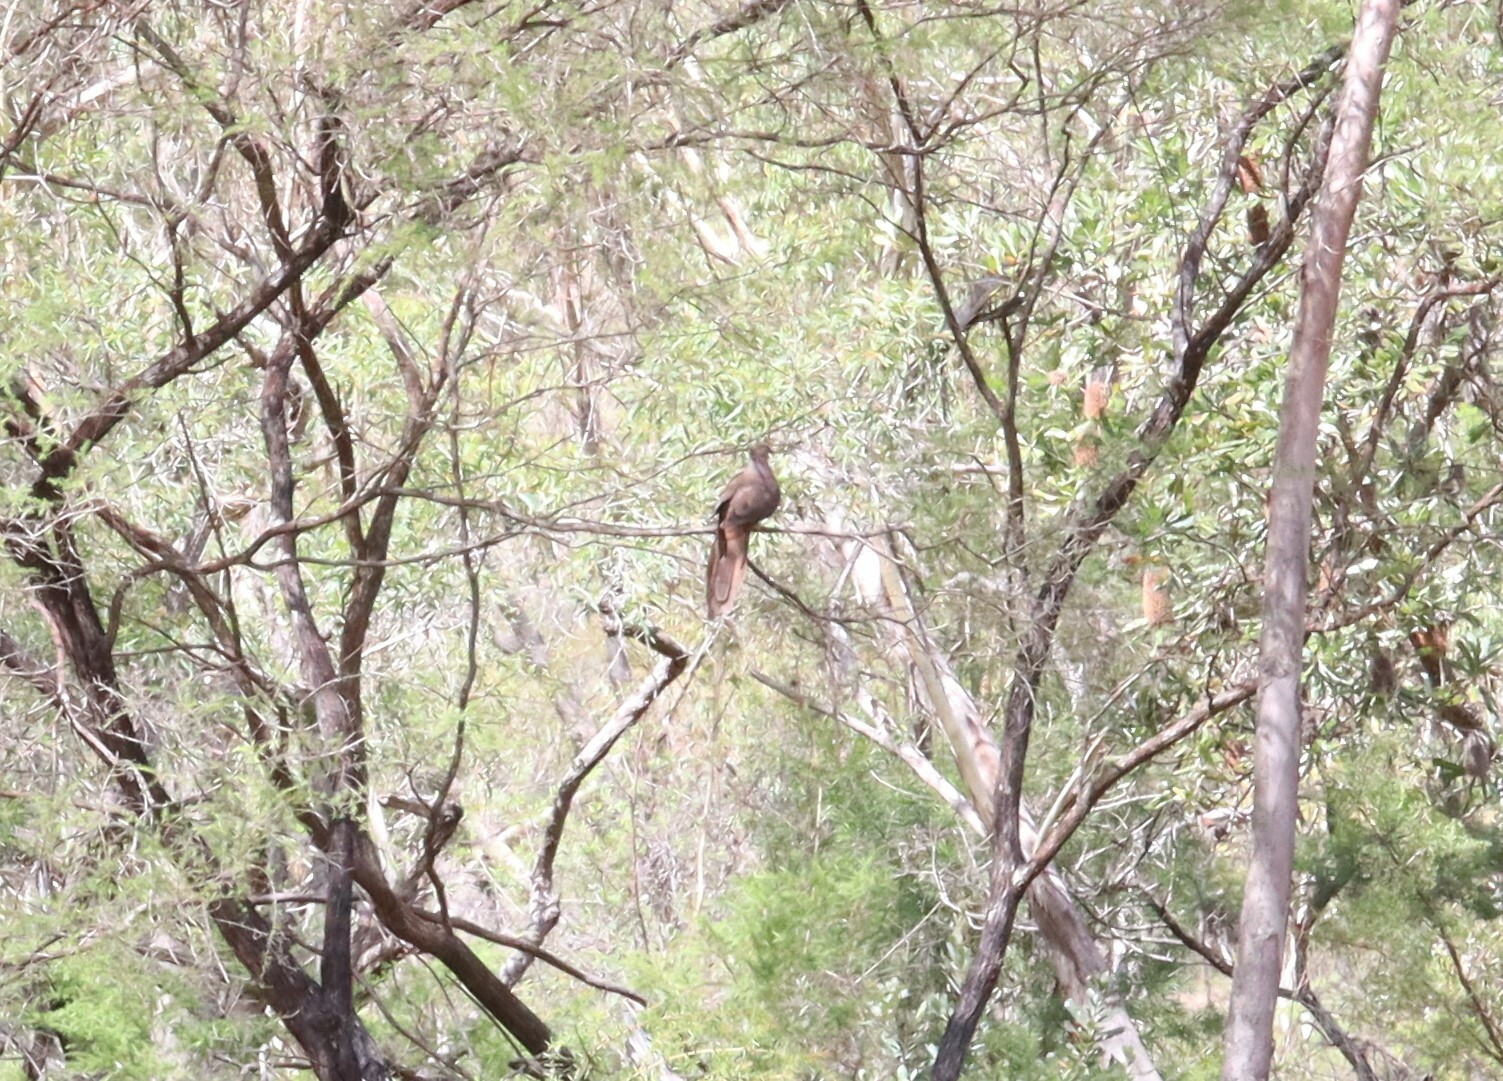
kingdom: Animalia
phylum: Chordata
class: Aves
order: Columbiformes
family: Columbidae
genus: Macropygia
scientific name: Macropygia phasianella
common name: Brown cuckoo-dove
